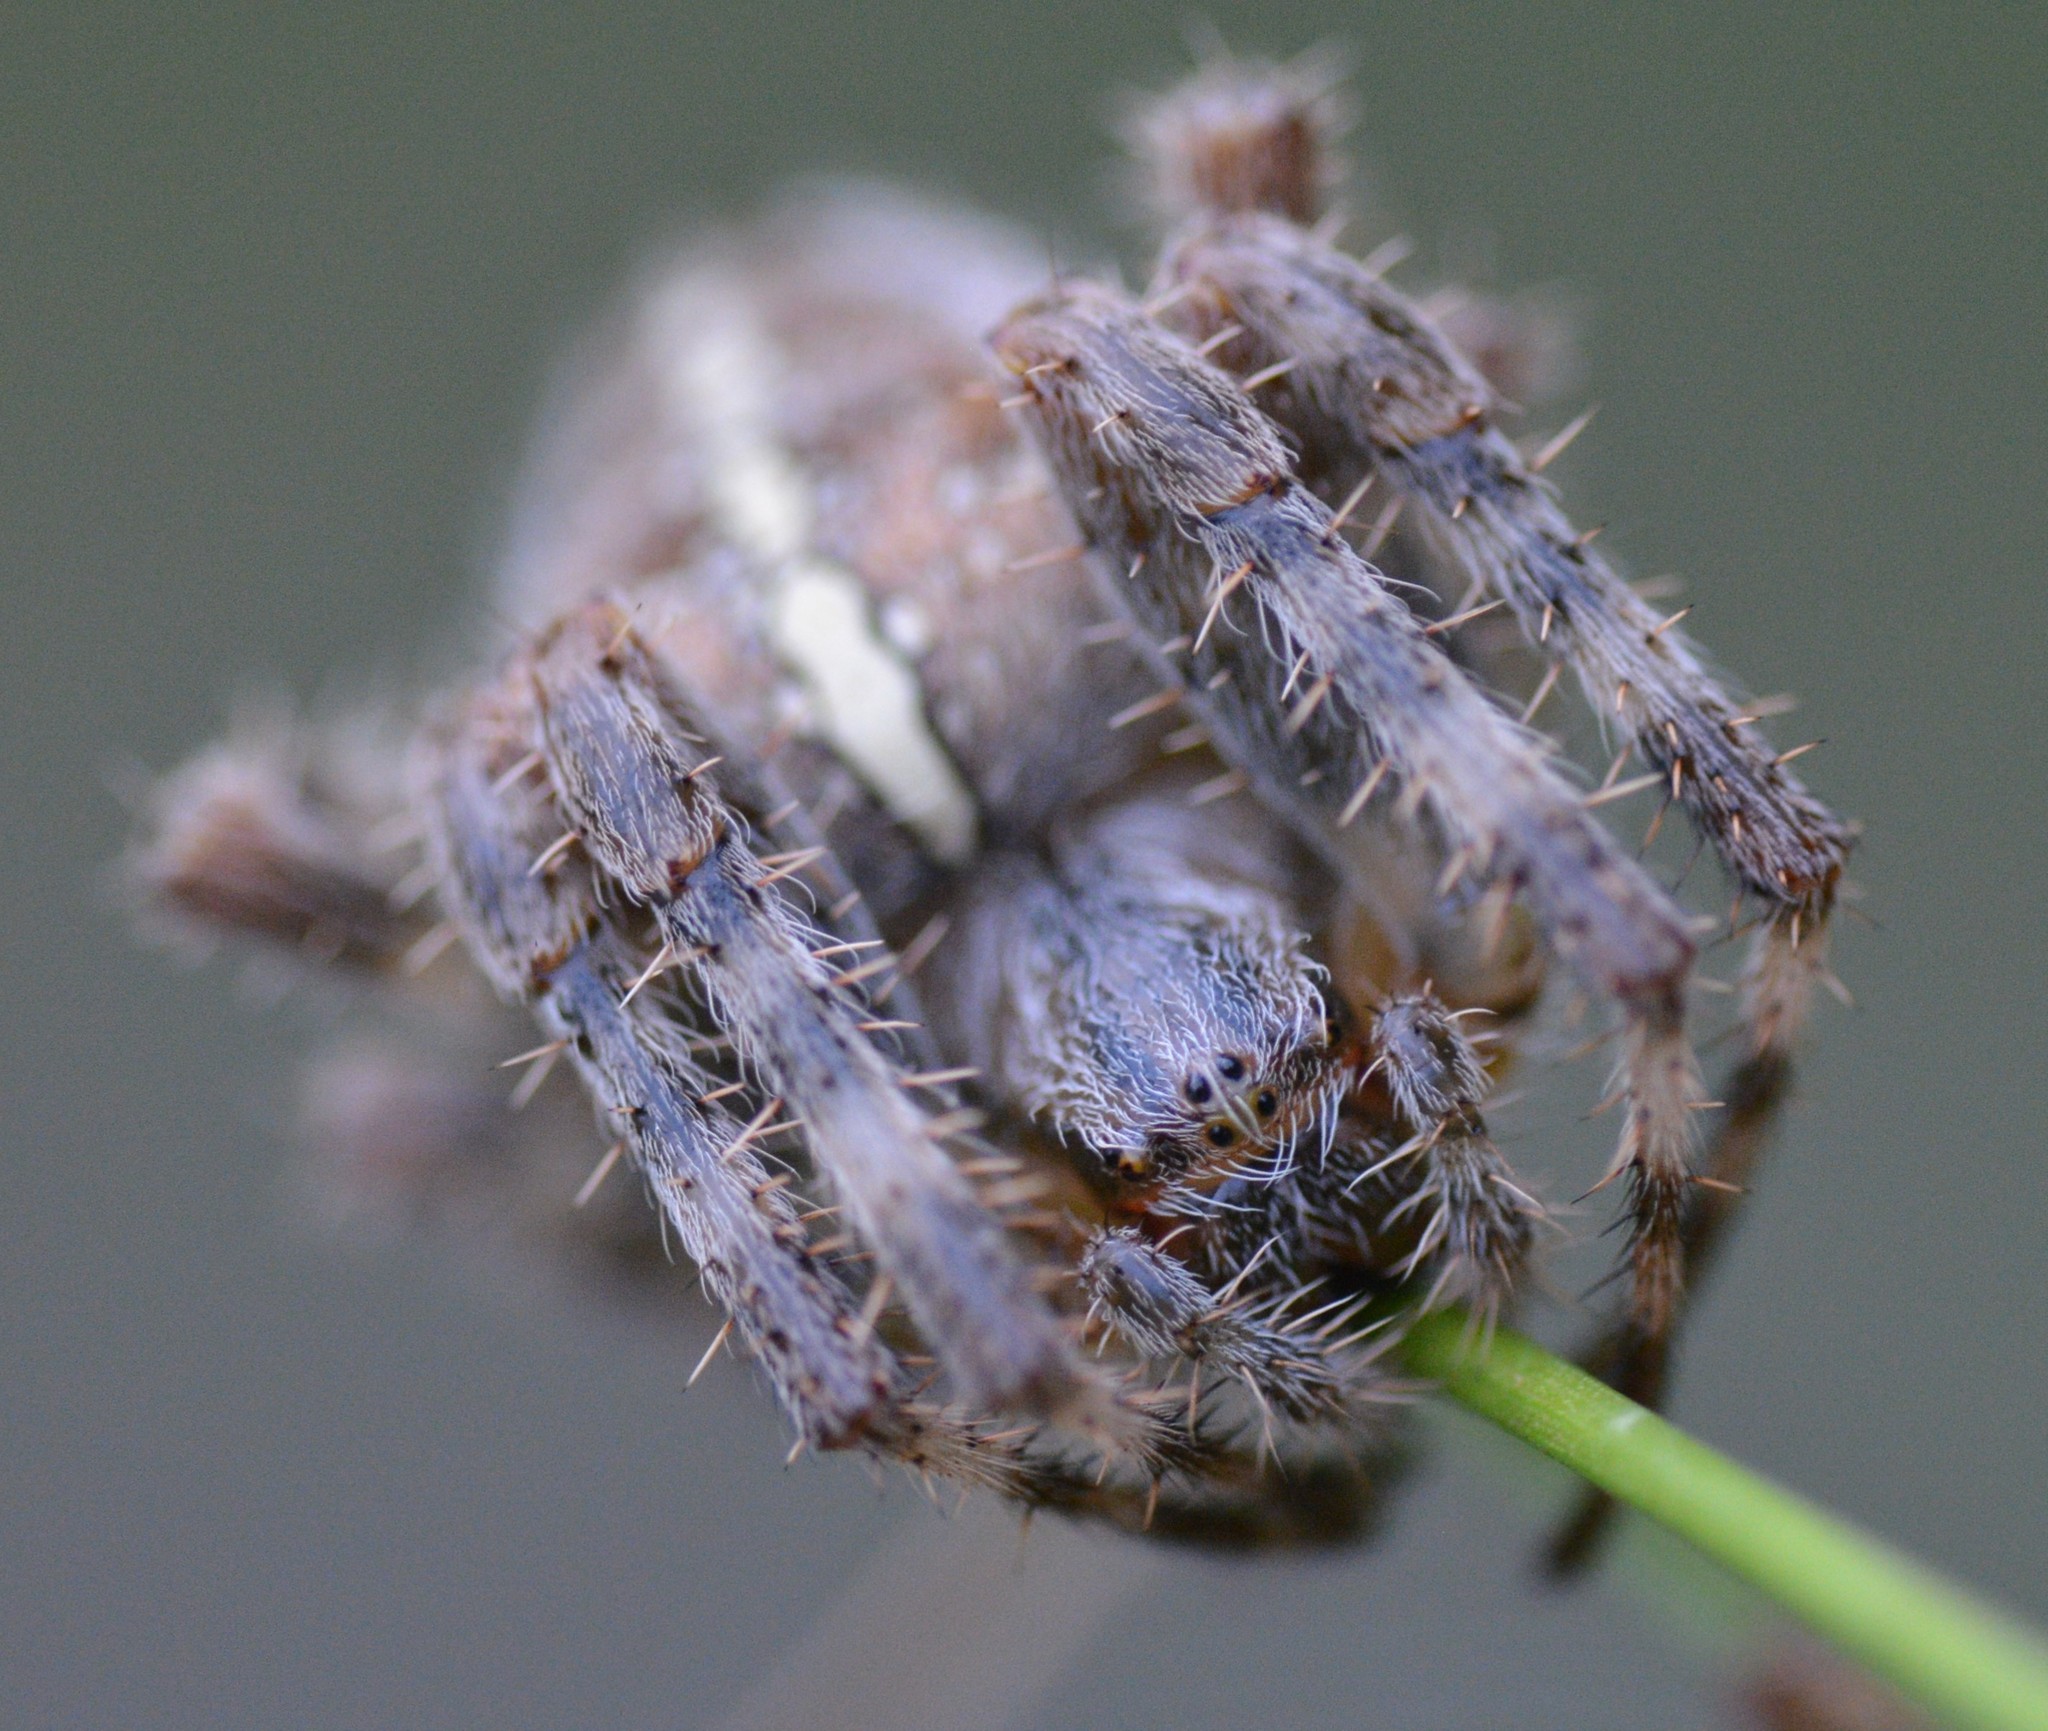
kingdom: Animalia
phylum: Arthropoda
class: Arachnida
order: Araneae
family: Araneidae
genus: Araneus
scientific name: Araneus diadematus
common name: Cross orbweaver
